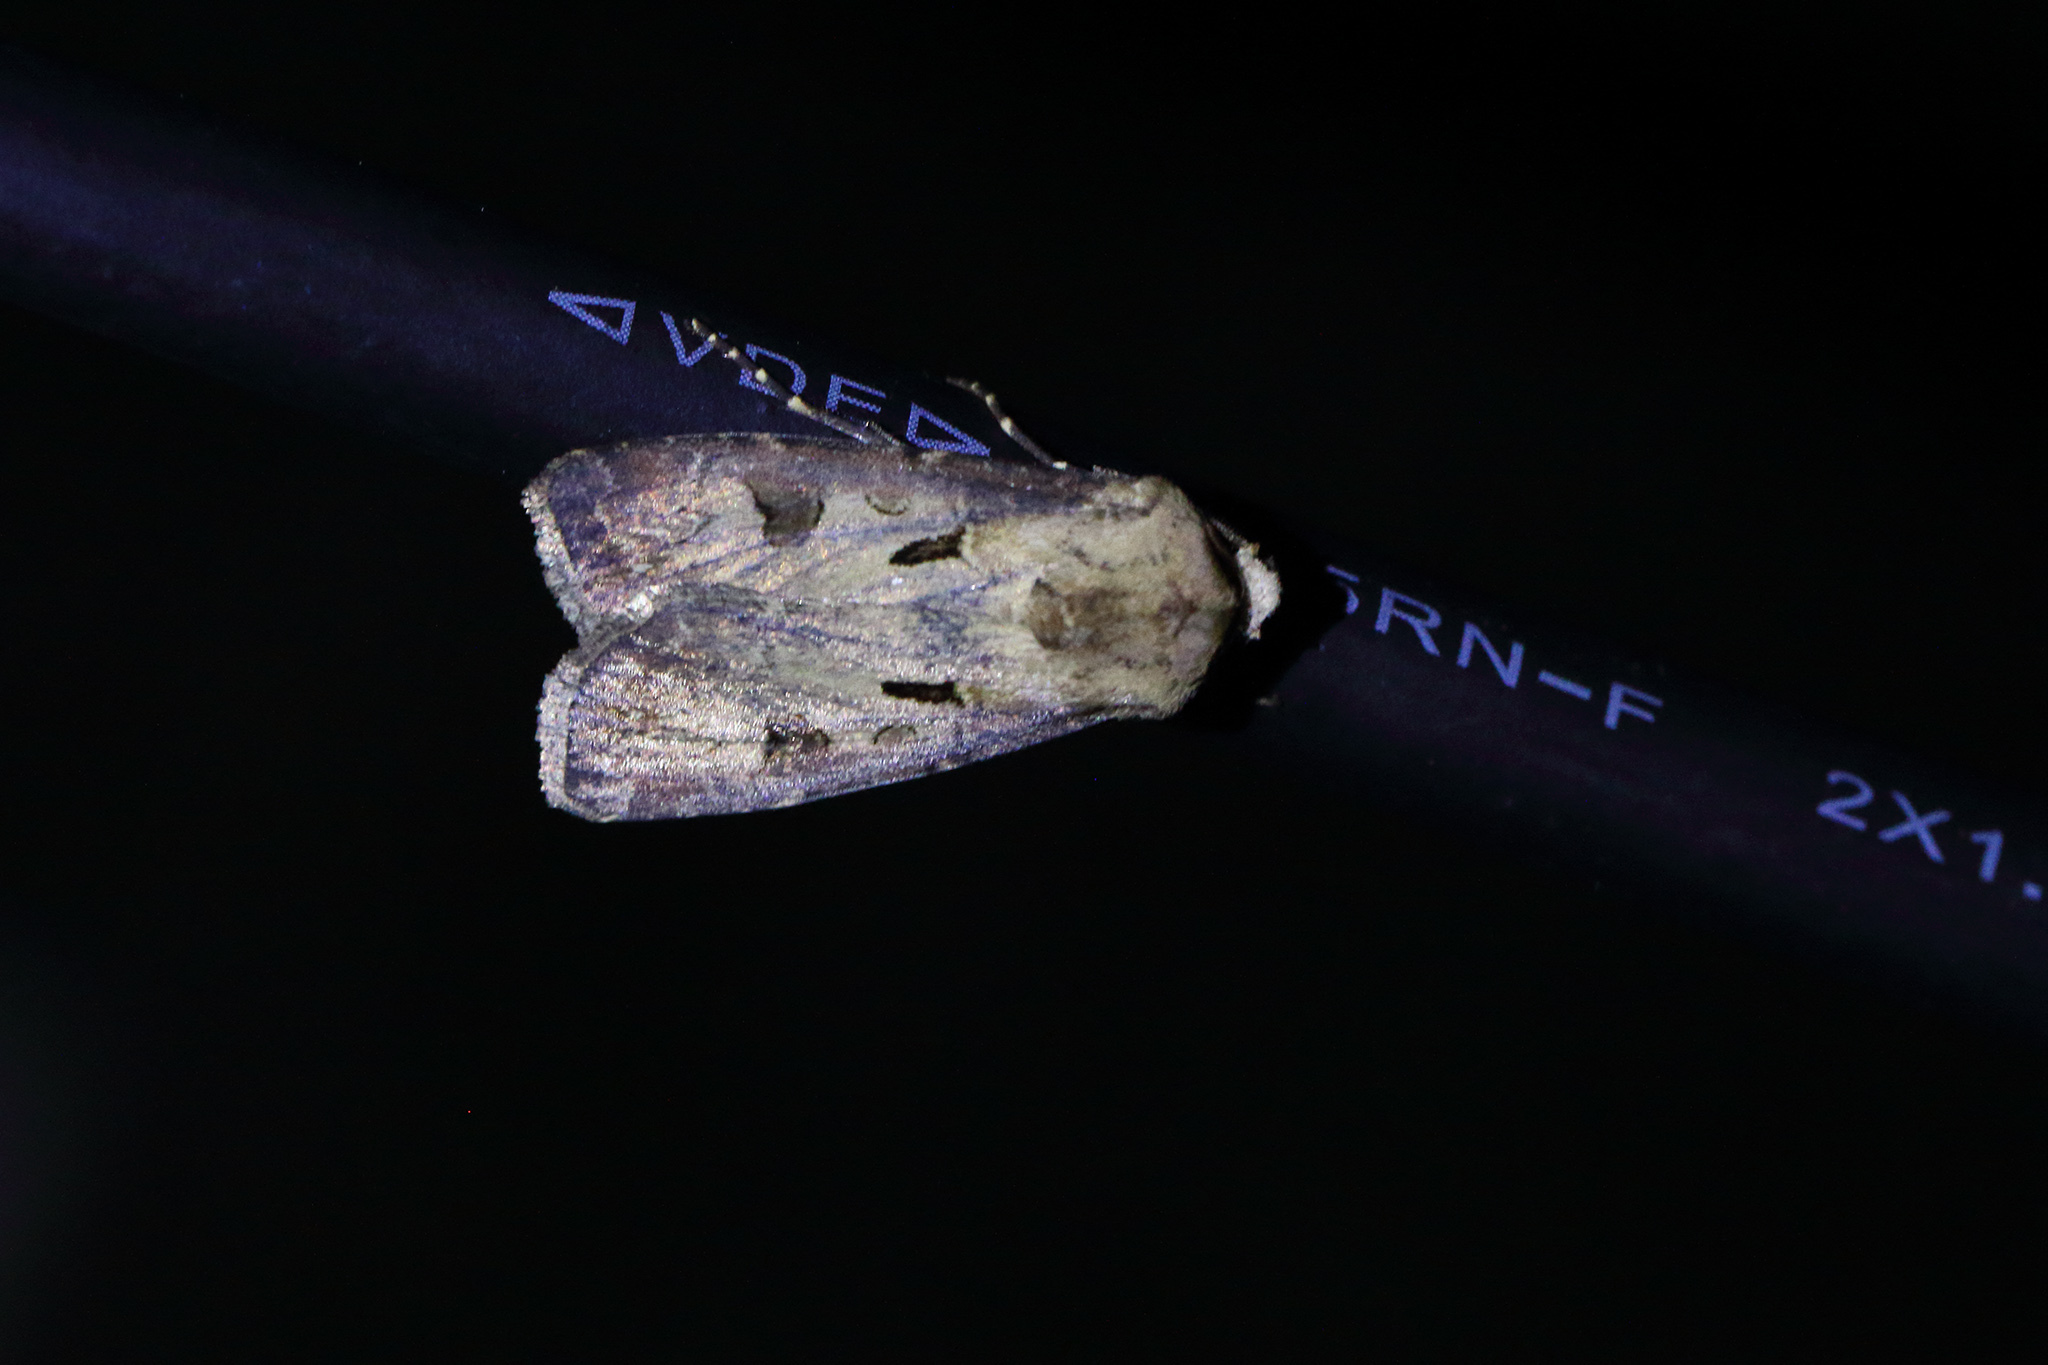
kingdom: Animalia
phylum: Arthropoda
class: Insecta
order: Lepidoptera
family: Noctuidae
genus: Agrotis
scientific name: Agrotis exclamationis
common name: Heart and dart
